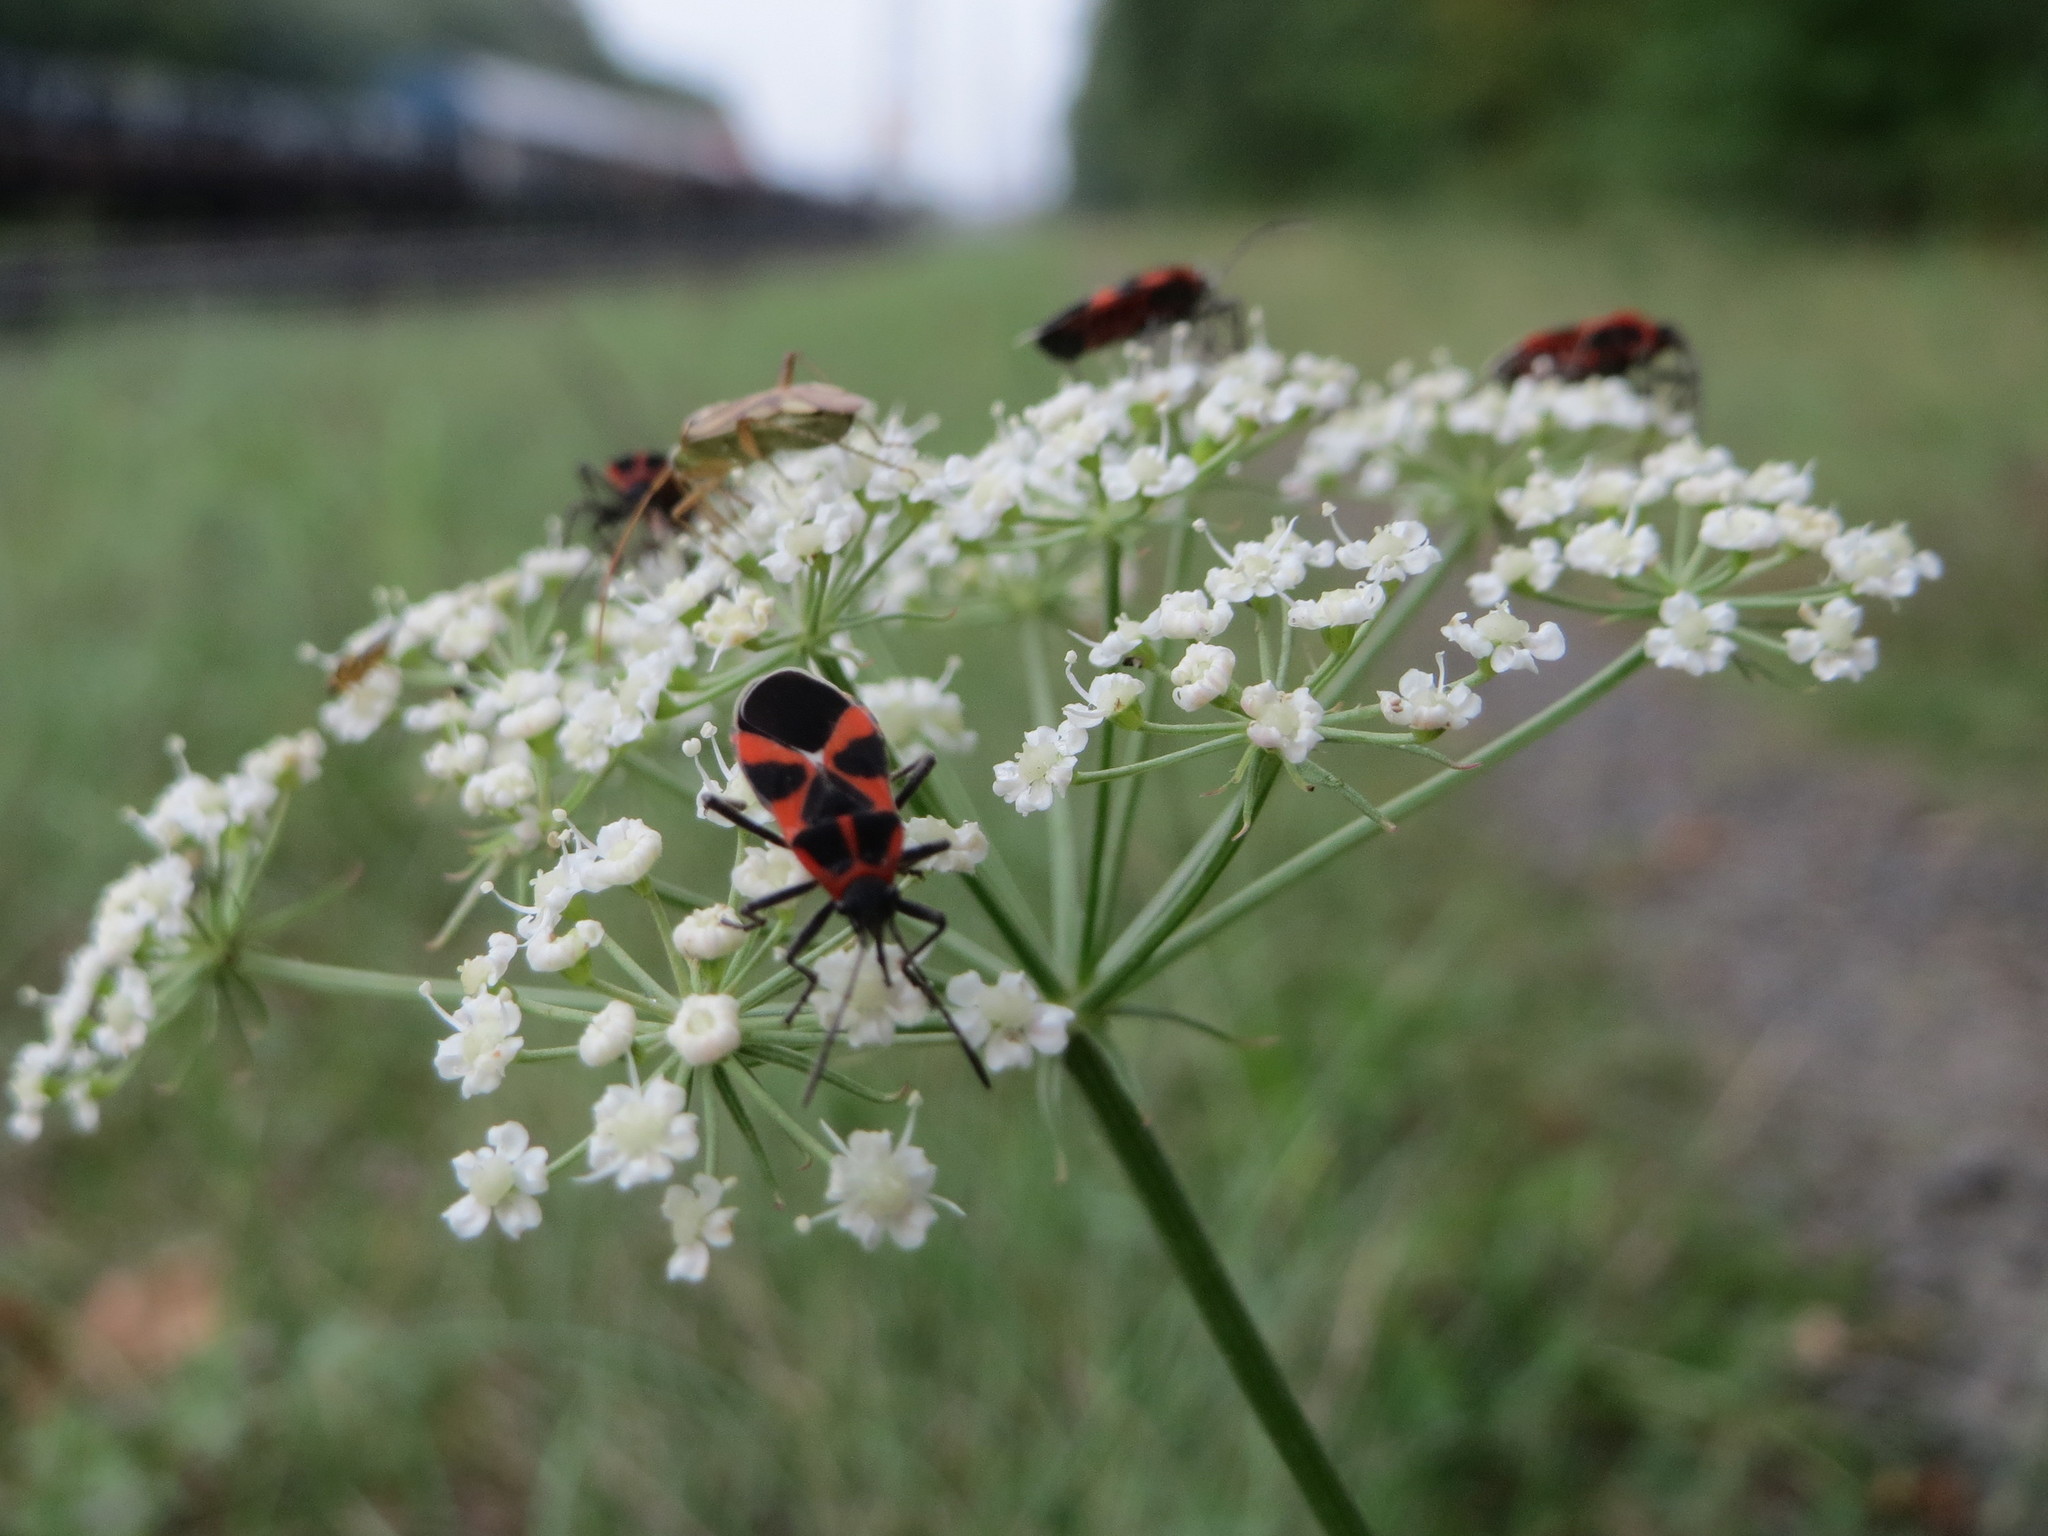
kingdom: Animalia
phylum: Arthropoda
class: Insecta
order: Hemiptera
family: Lygaeidae
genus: Tropidothorax
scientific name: Tropidothorax leucopterus
